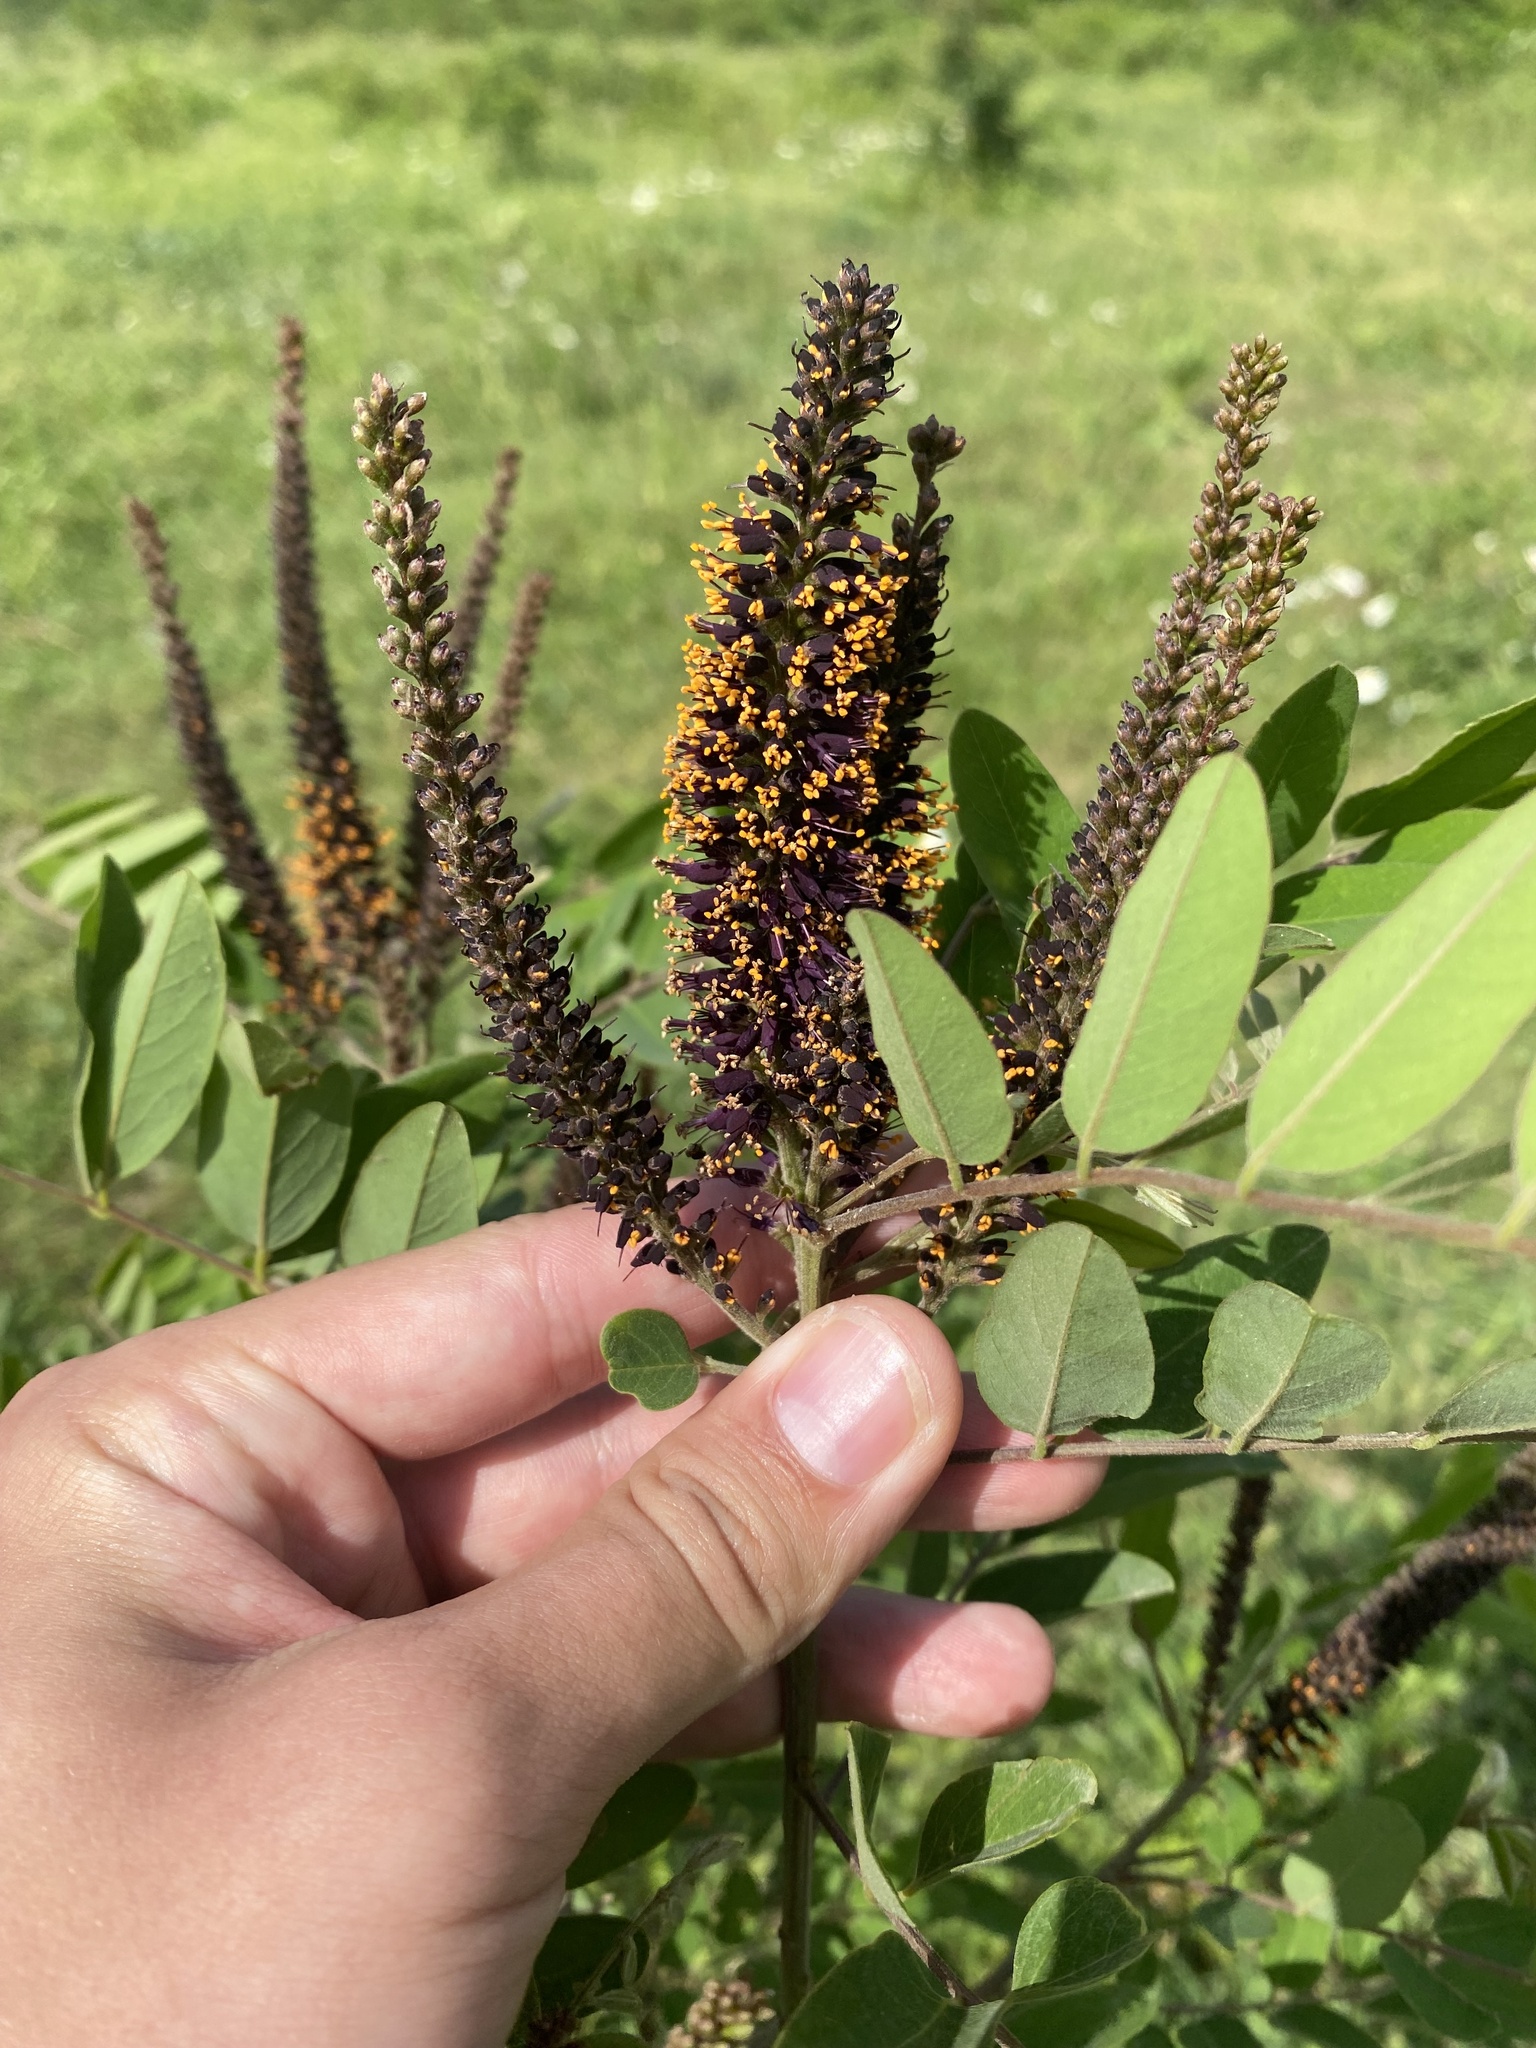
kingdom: Plantae
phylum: Tracheophyta
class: Magnoliopsida
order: Fabales
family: Fabaceae
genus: Amorpha
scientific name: Amorpha fruticosa
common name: False indigo
